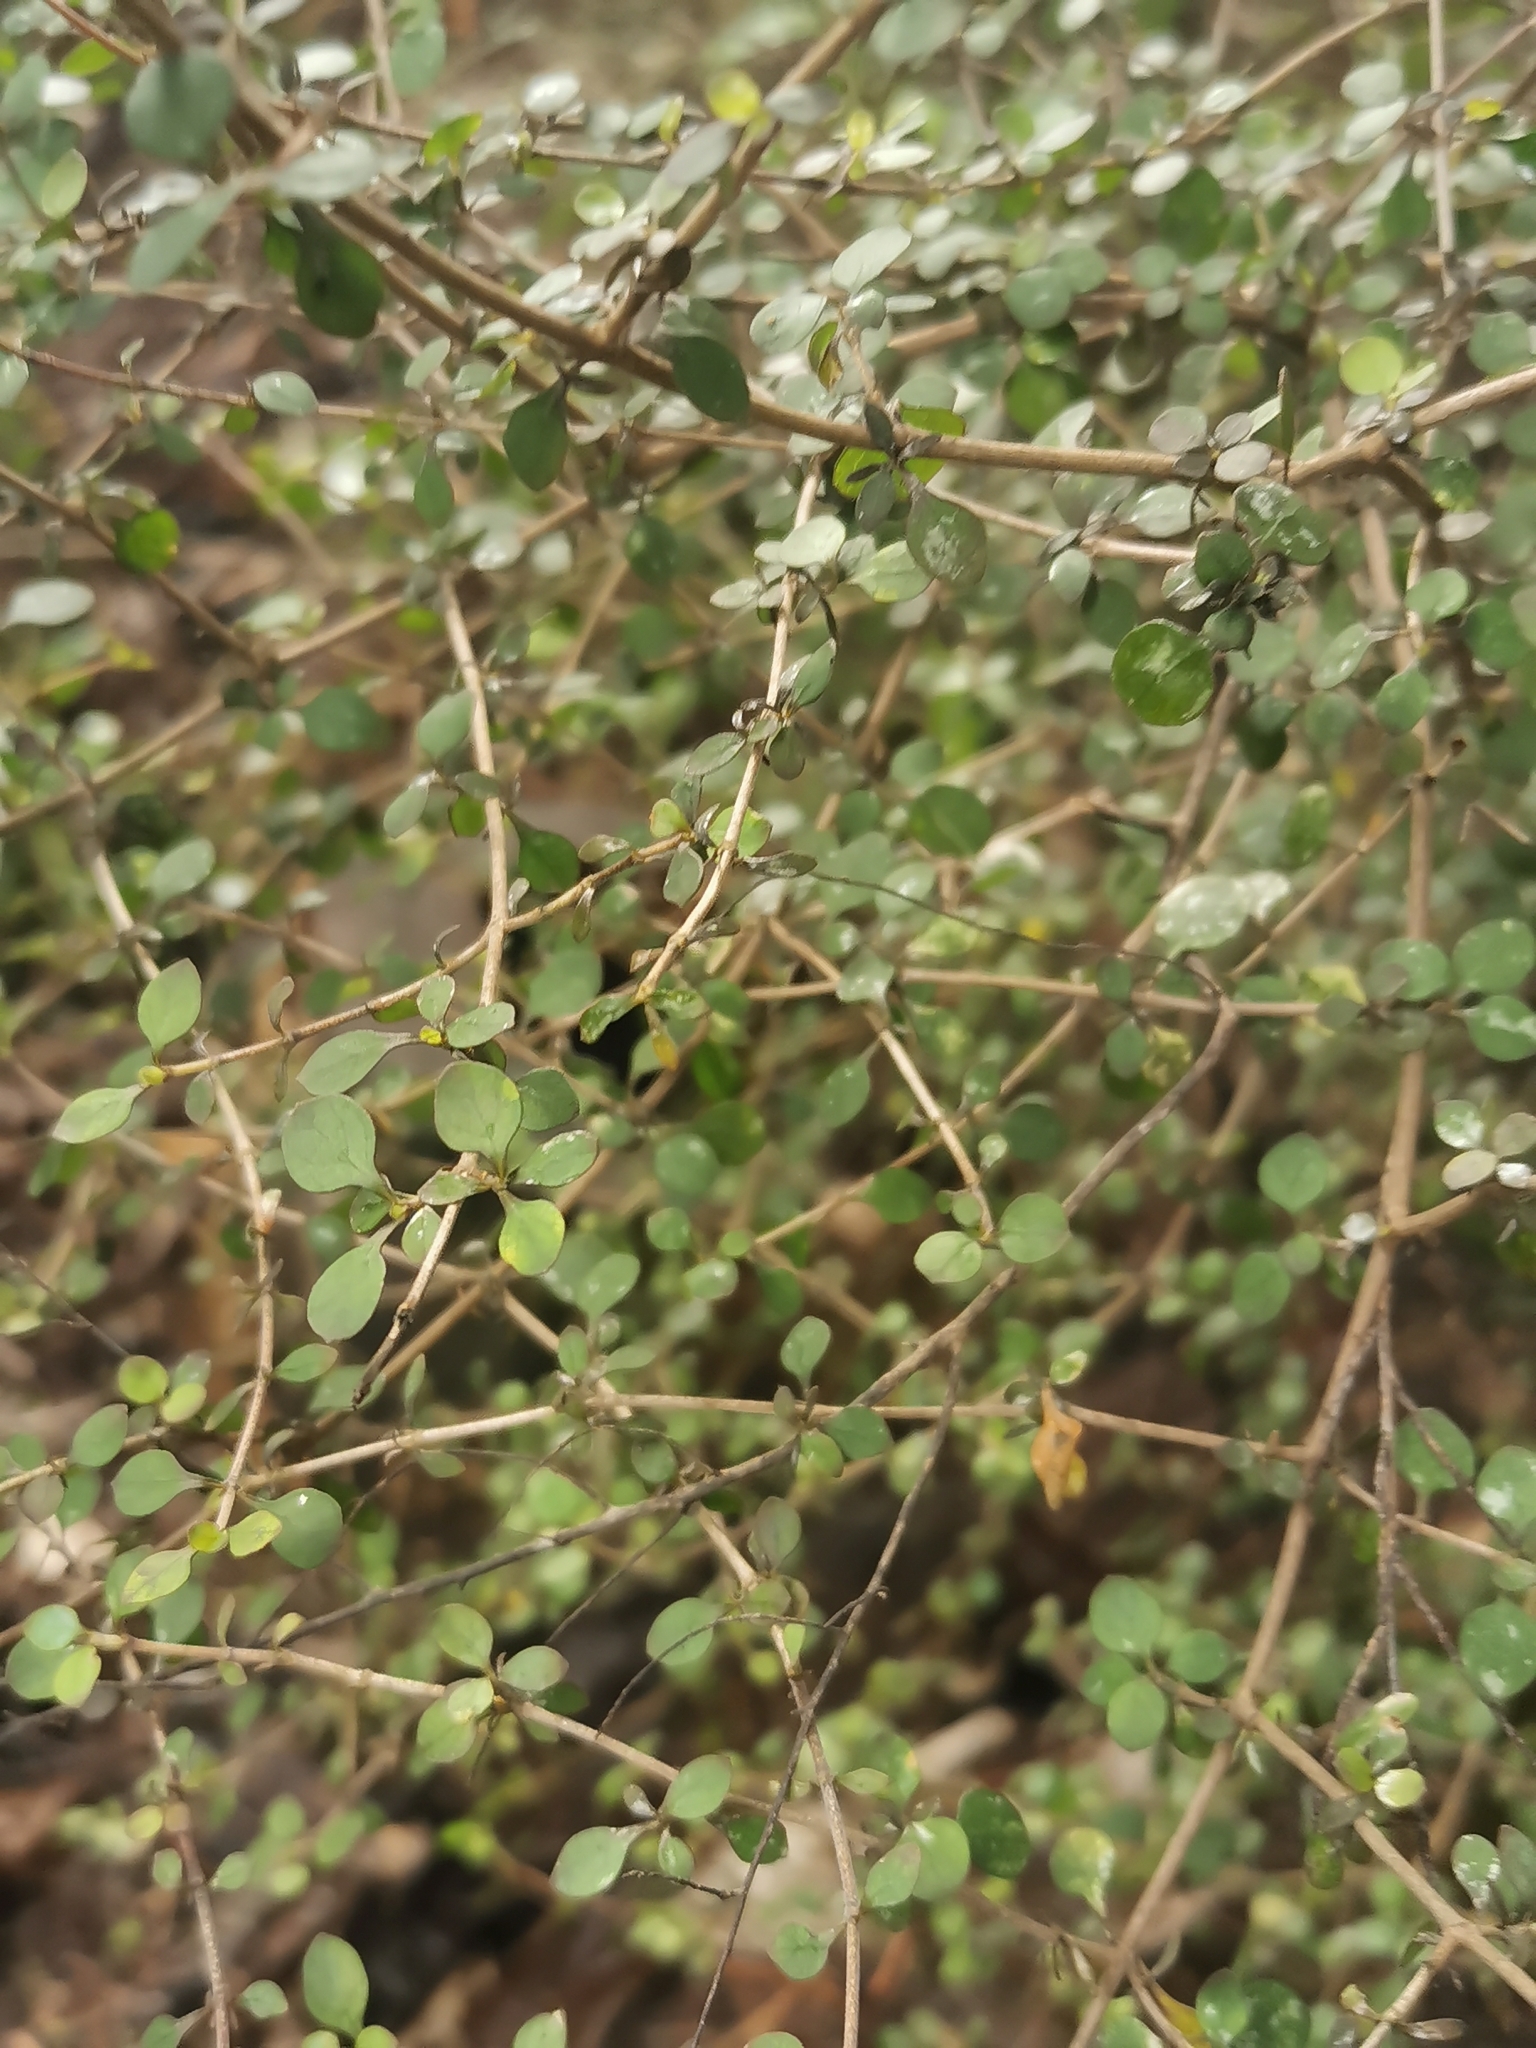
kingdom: Plantae
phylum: Tracheophyta
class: Magnoliopsida
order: Gentianales
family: Rubiaceae
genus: Coprosma
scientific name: Coprosma rhamnoides
